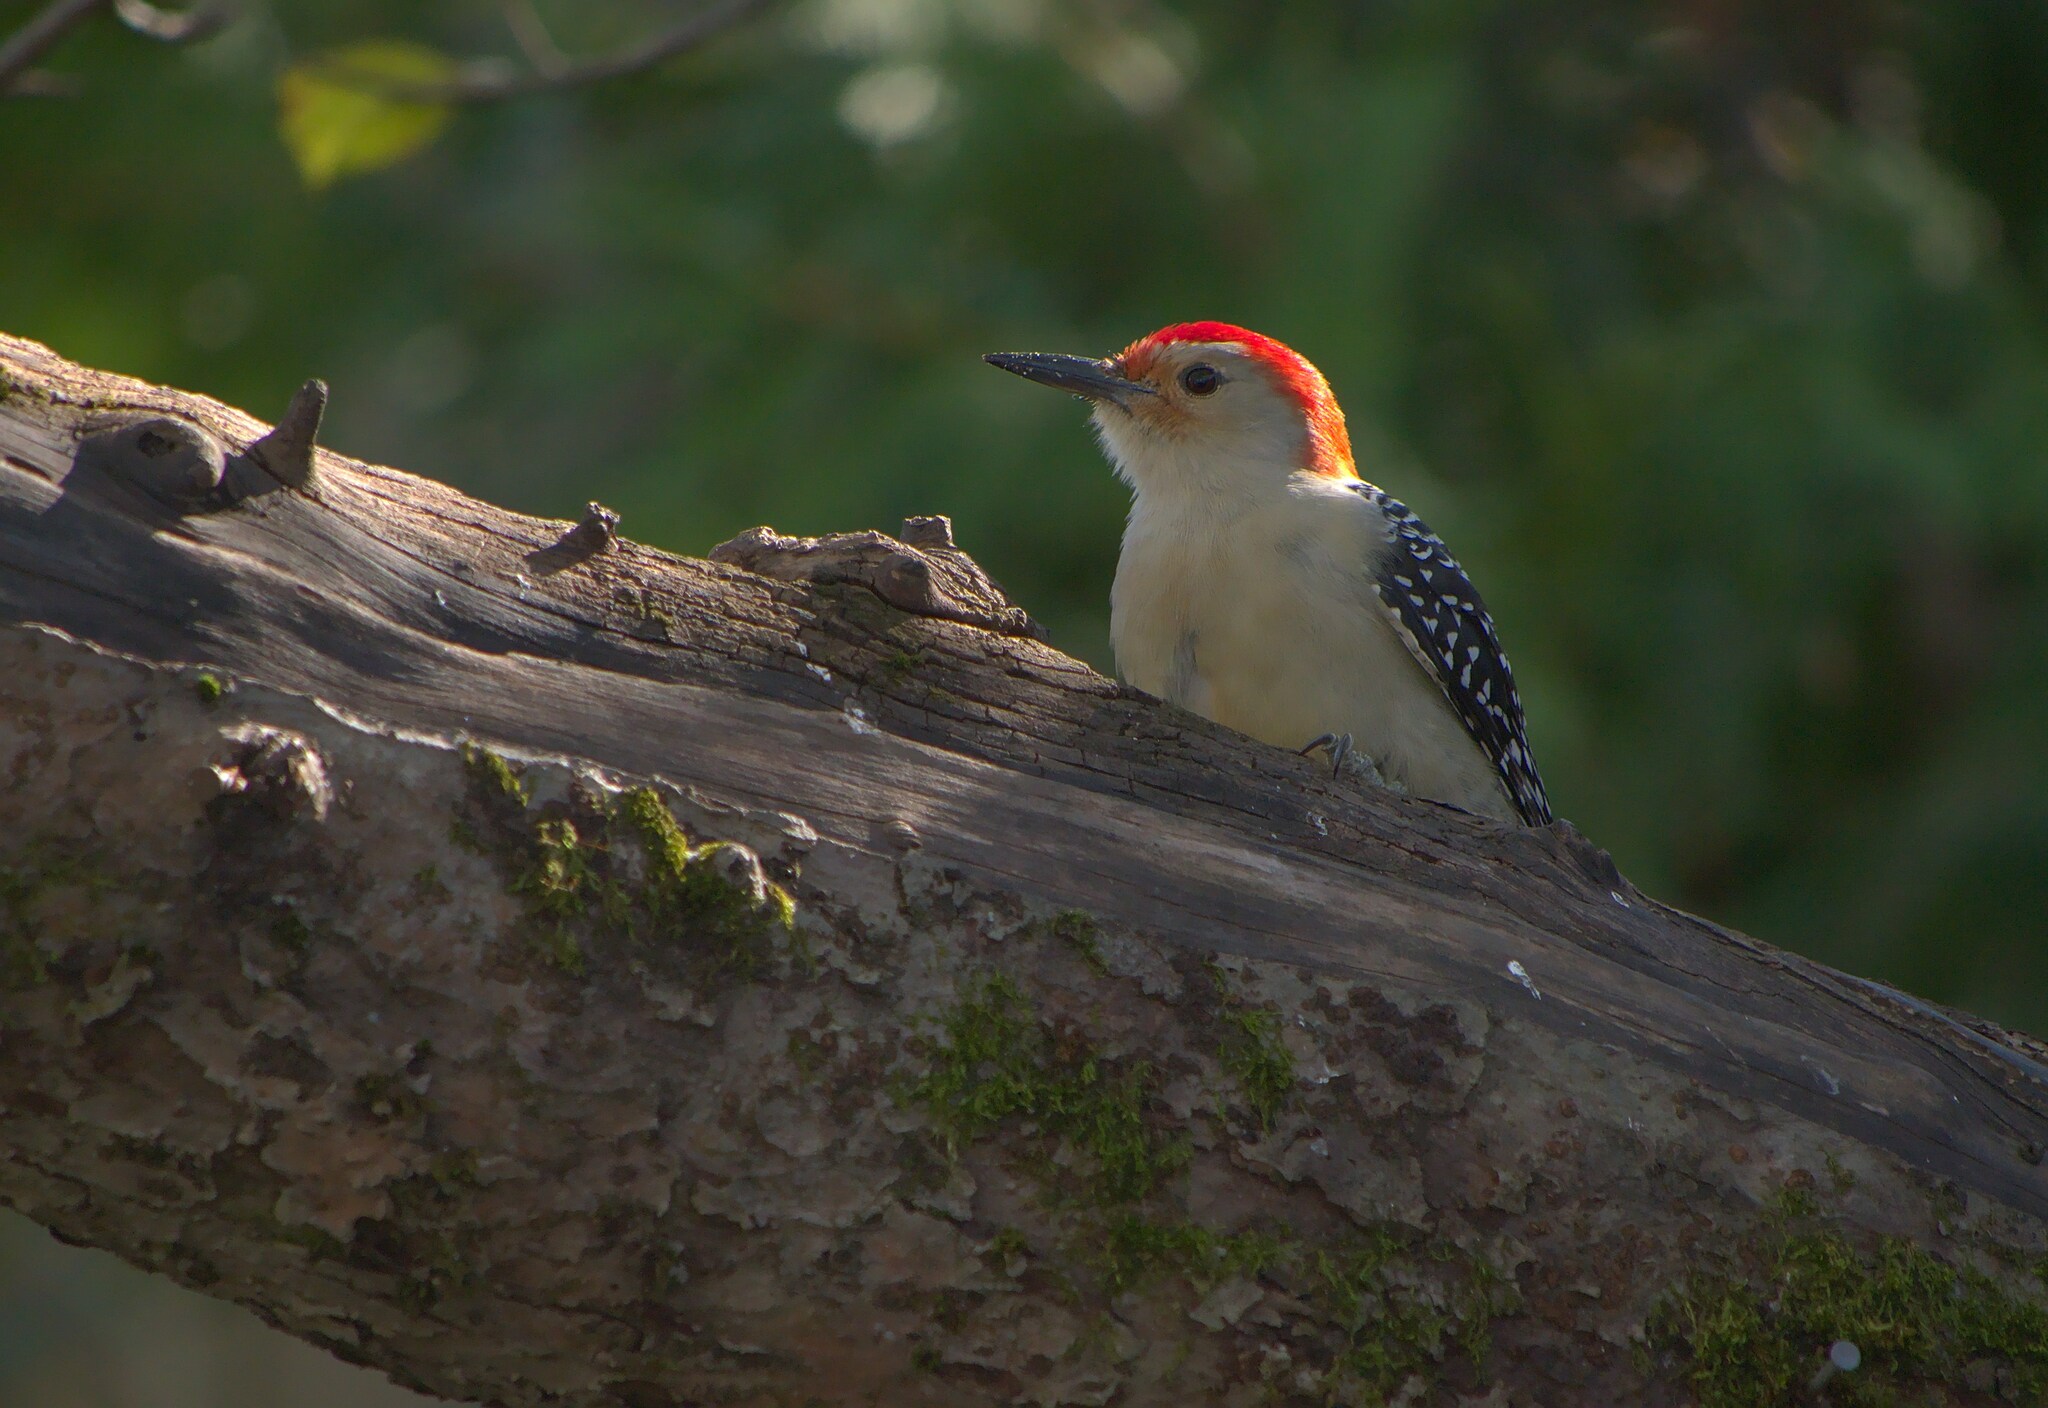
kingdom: Animalia
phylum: Chordata
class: Aves
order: Piciformes
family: Picidae
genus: Melanerpes
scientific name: Melanerpes carolinus
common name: Red-bellied woodpecker
